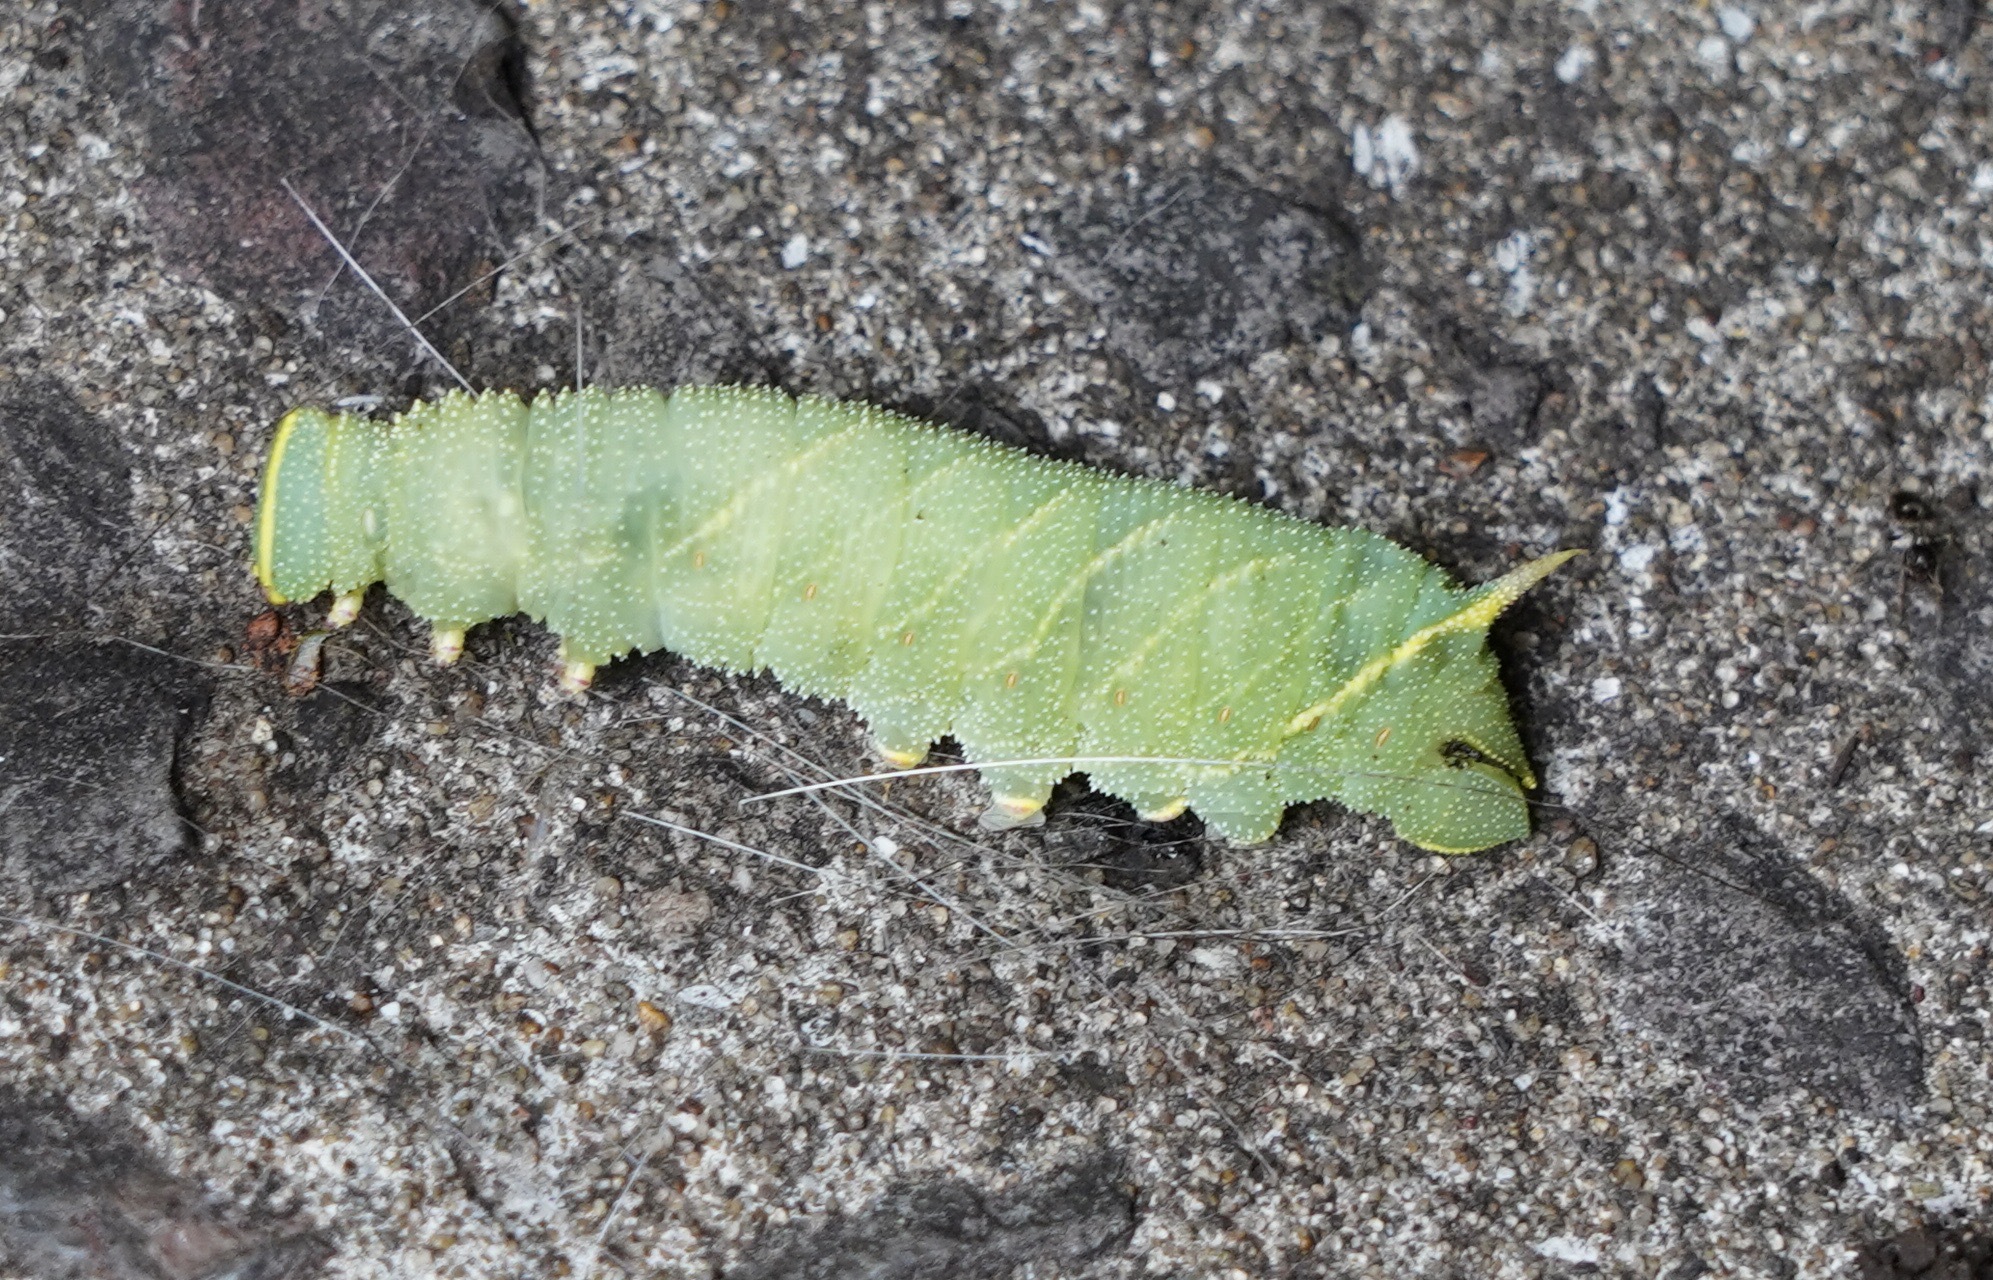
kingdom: Animalia
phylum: Arthropoda
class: Insecta
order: Lepidoptera
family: Sphingidae
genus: Laothoe
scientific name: Laothoe populi
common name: Poplar hawk-moth
